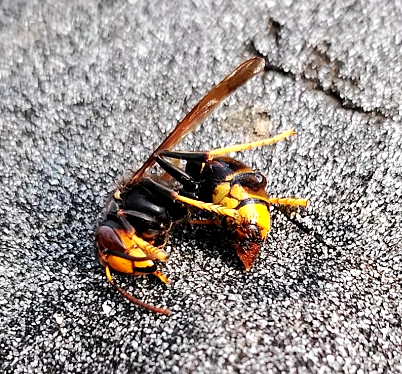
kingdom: Animalia
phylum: Arthropoda
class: Insecta
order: Hymenoptera
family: Vespidae
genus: Vespa
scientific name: Vespa velutina
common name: Asian hornet
